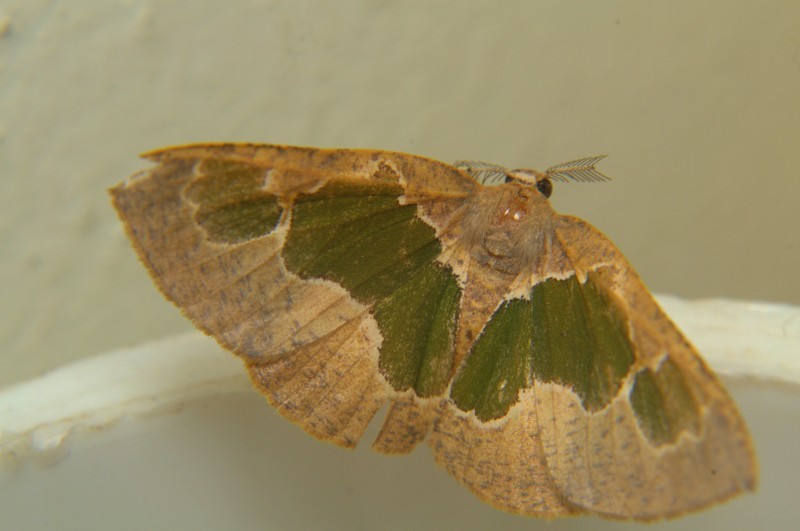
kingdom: Animalia
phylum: Arthropoda
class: Insecta
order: Lepidoptera
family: Geometridae
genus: Celenna
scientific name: Celenna festivaria
